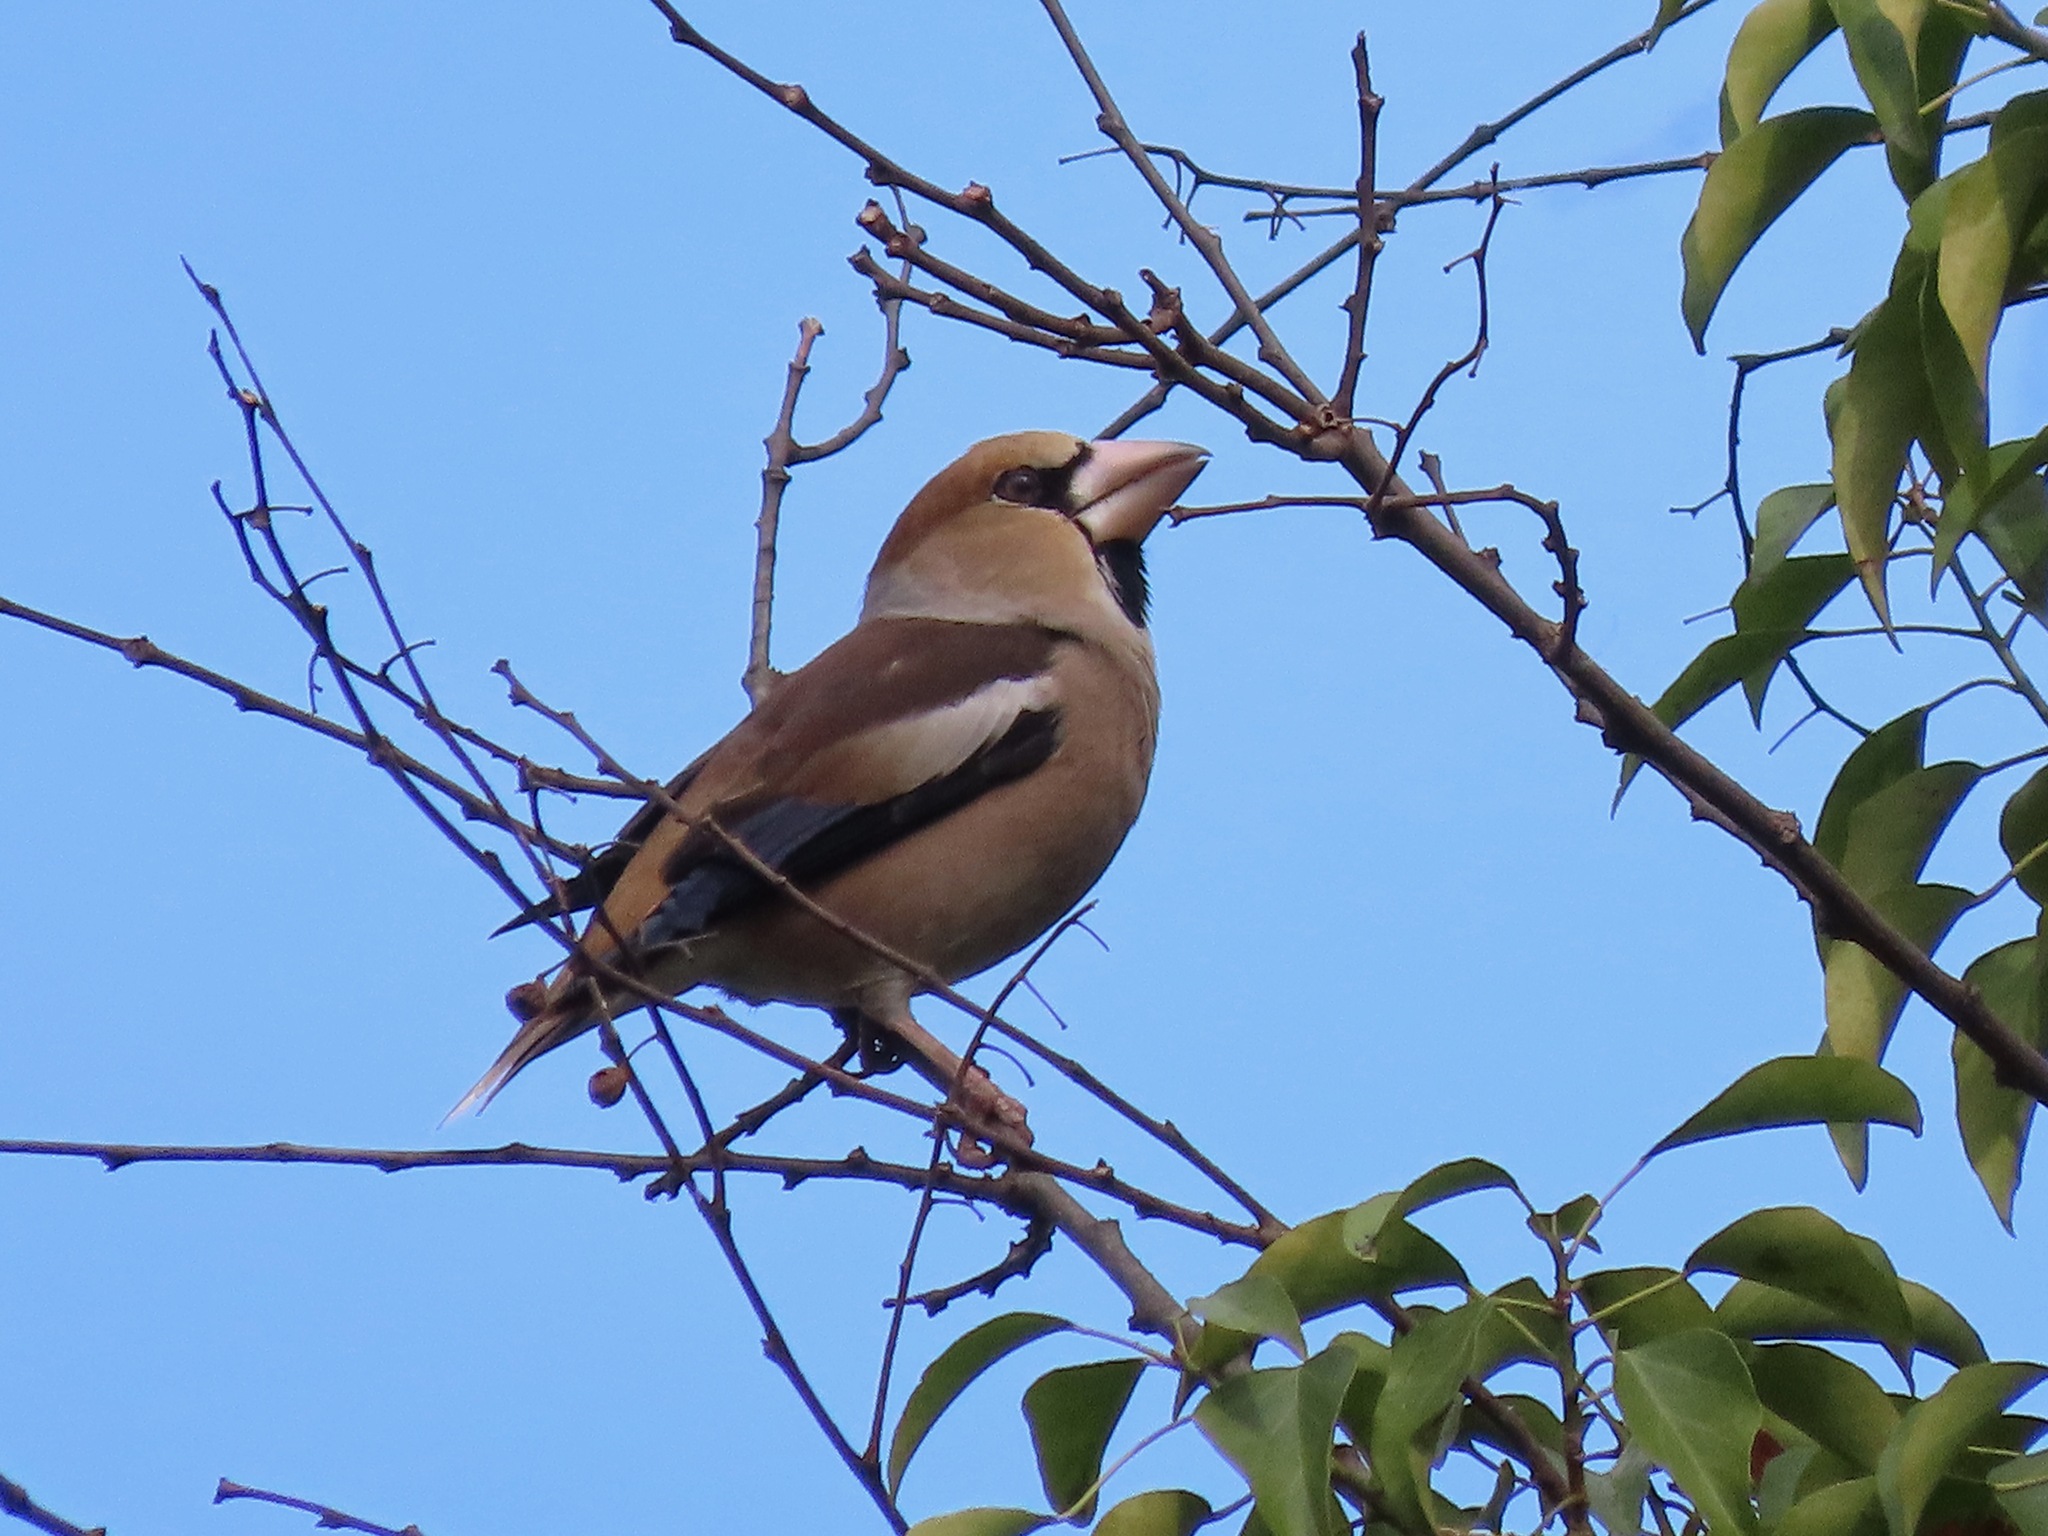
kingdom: Animalia
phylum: Chordata
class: Aves
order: Passeriformes
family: Fringillidae
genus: Coccothraustes
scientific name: Coccothraustes coccothraustes
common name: Hawfinch
